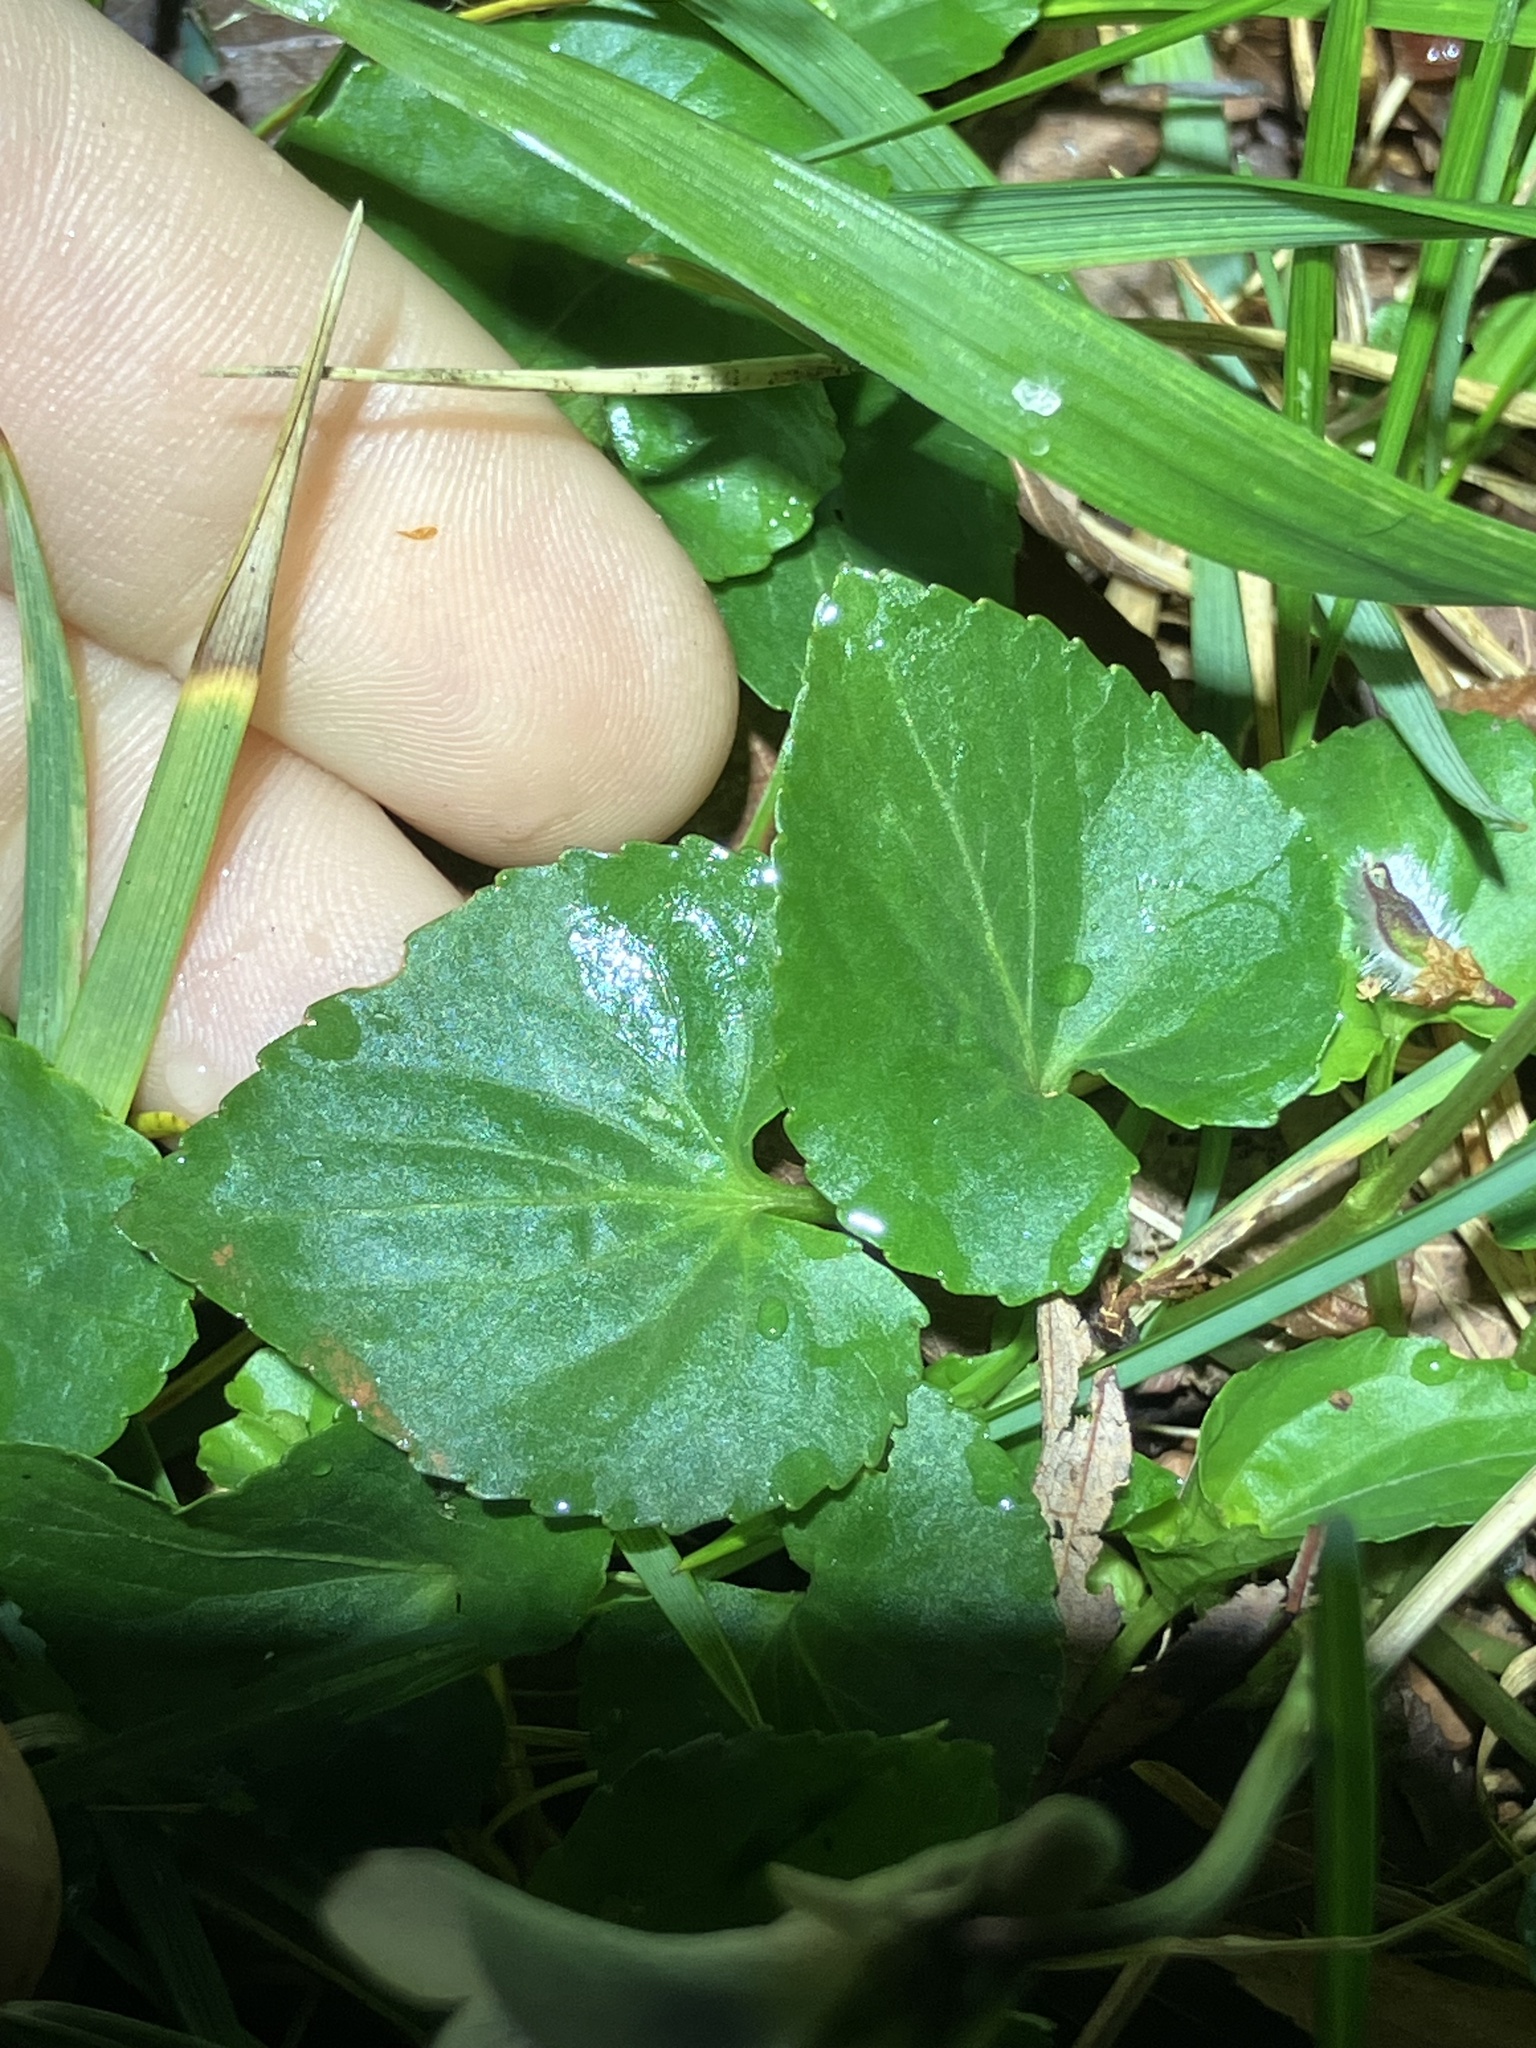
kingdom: Plantae
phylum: Tracheophyta
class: Magnoliopsida
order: Malpighiales
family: Violaceae
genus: Viola
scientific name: Viola communis
